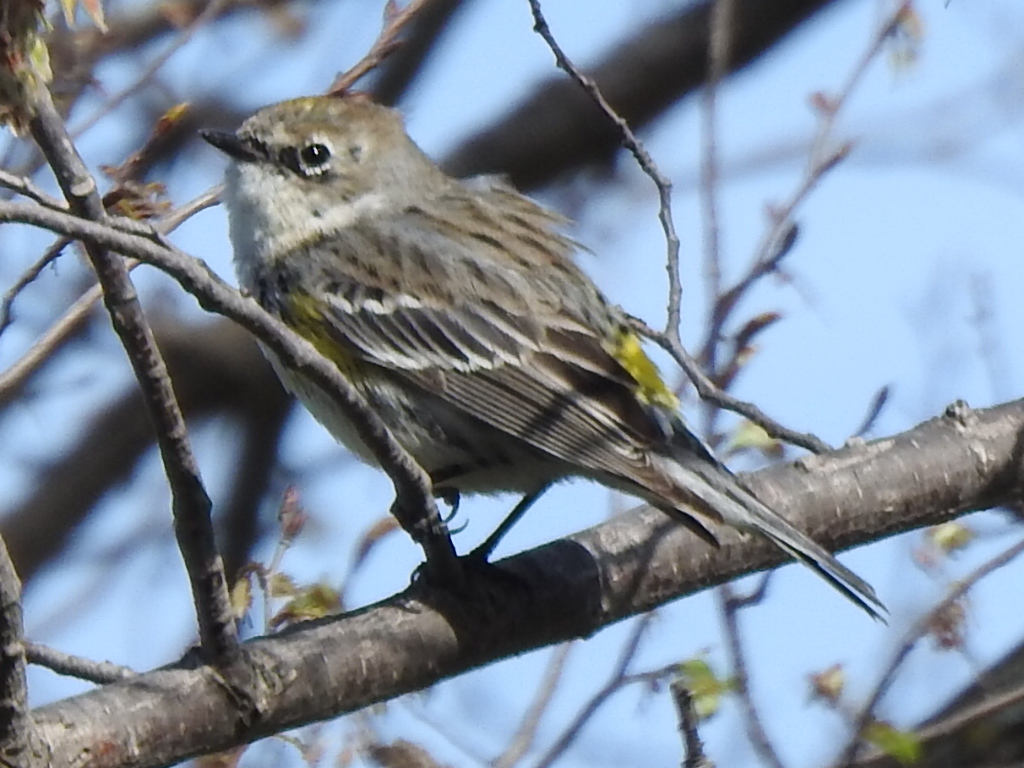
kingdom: Animalia
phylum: Chordata
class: Aves
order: Passeriformes
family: Parulidae
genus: Setophaga
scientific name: Setophaga coronata
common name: Myrtle warbler
